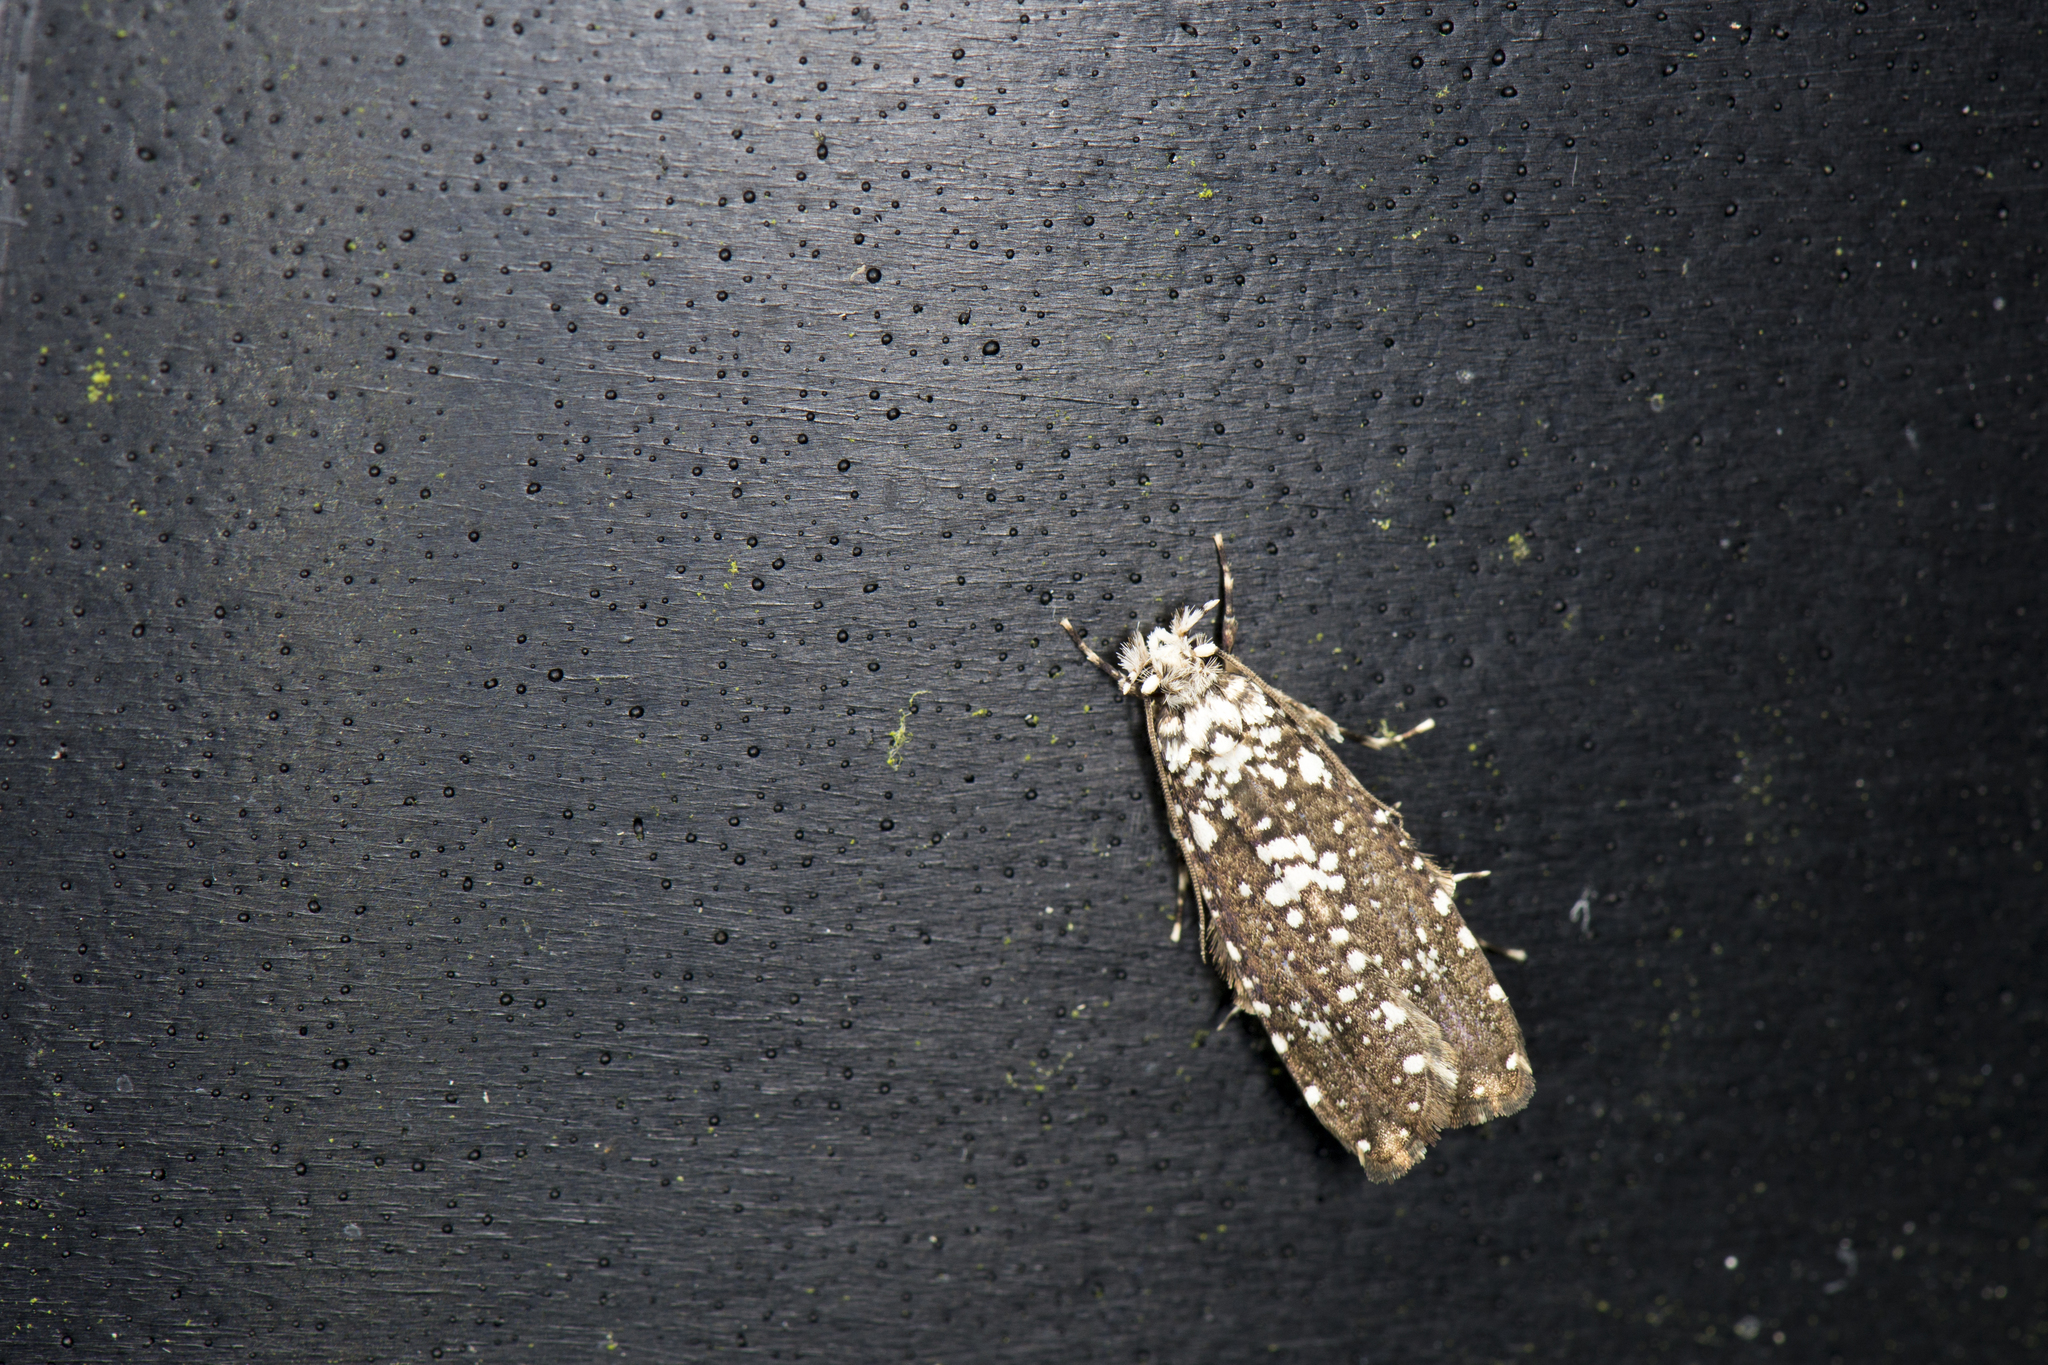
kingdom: Animalia
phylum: Arthropoda
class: Insecta
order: Lepidoptera
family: Tineidae
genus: Tinissa
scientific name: Tinissa indica
